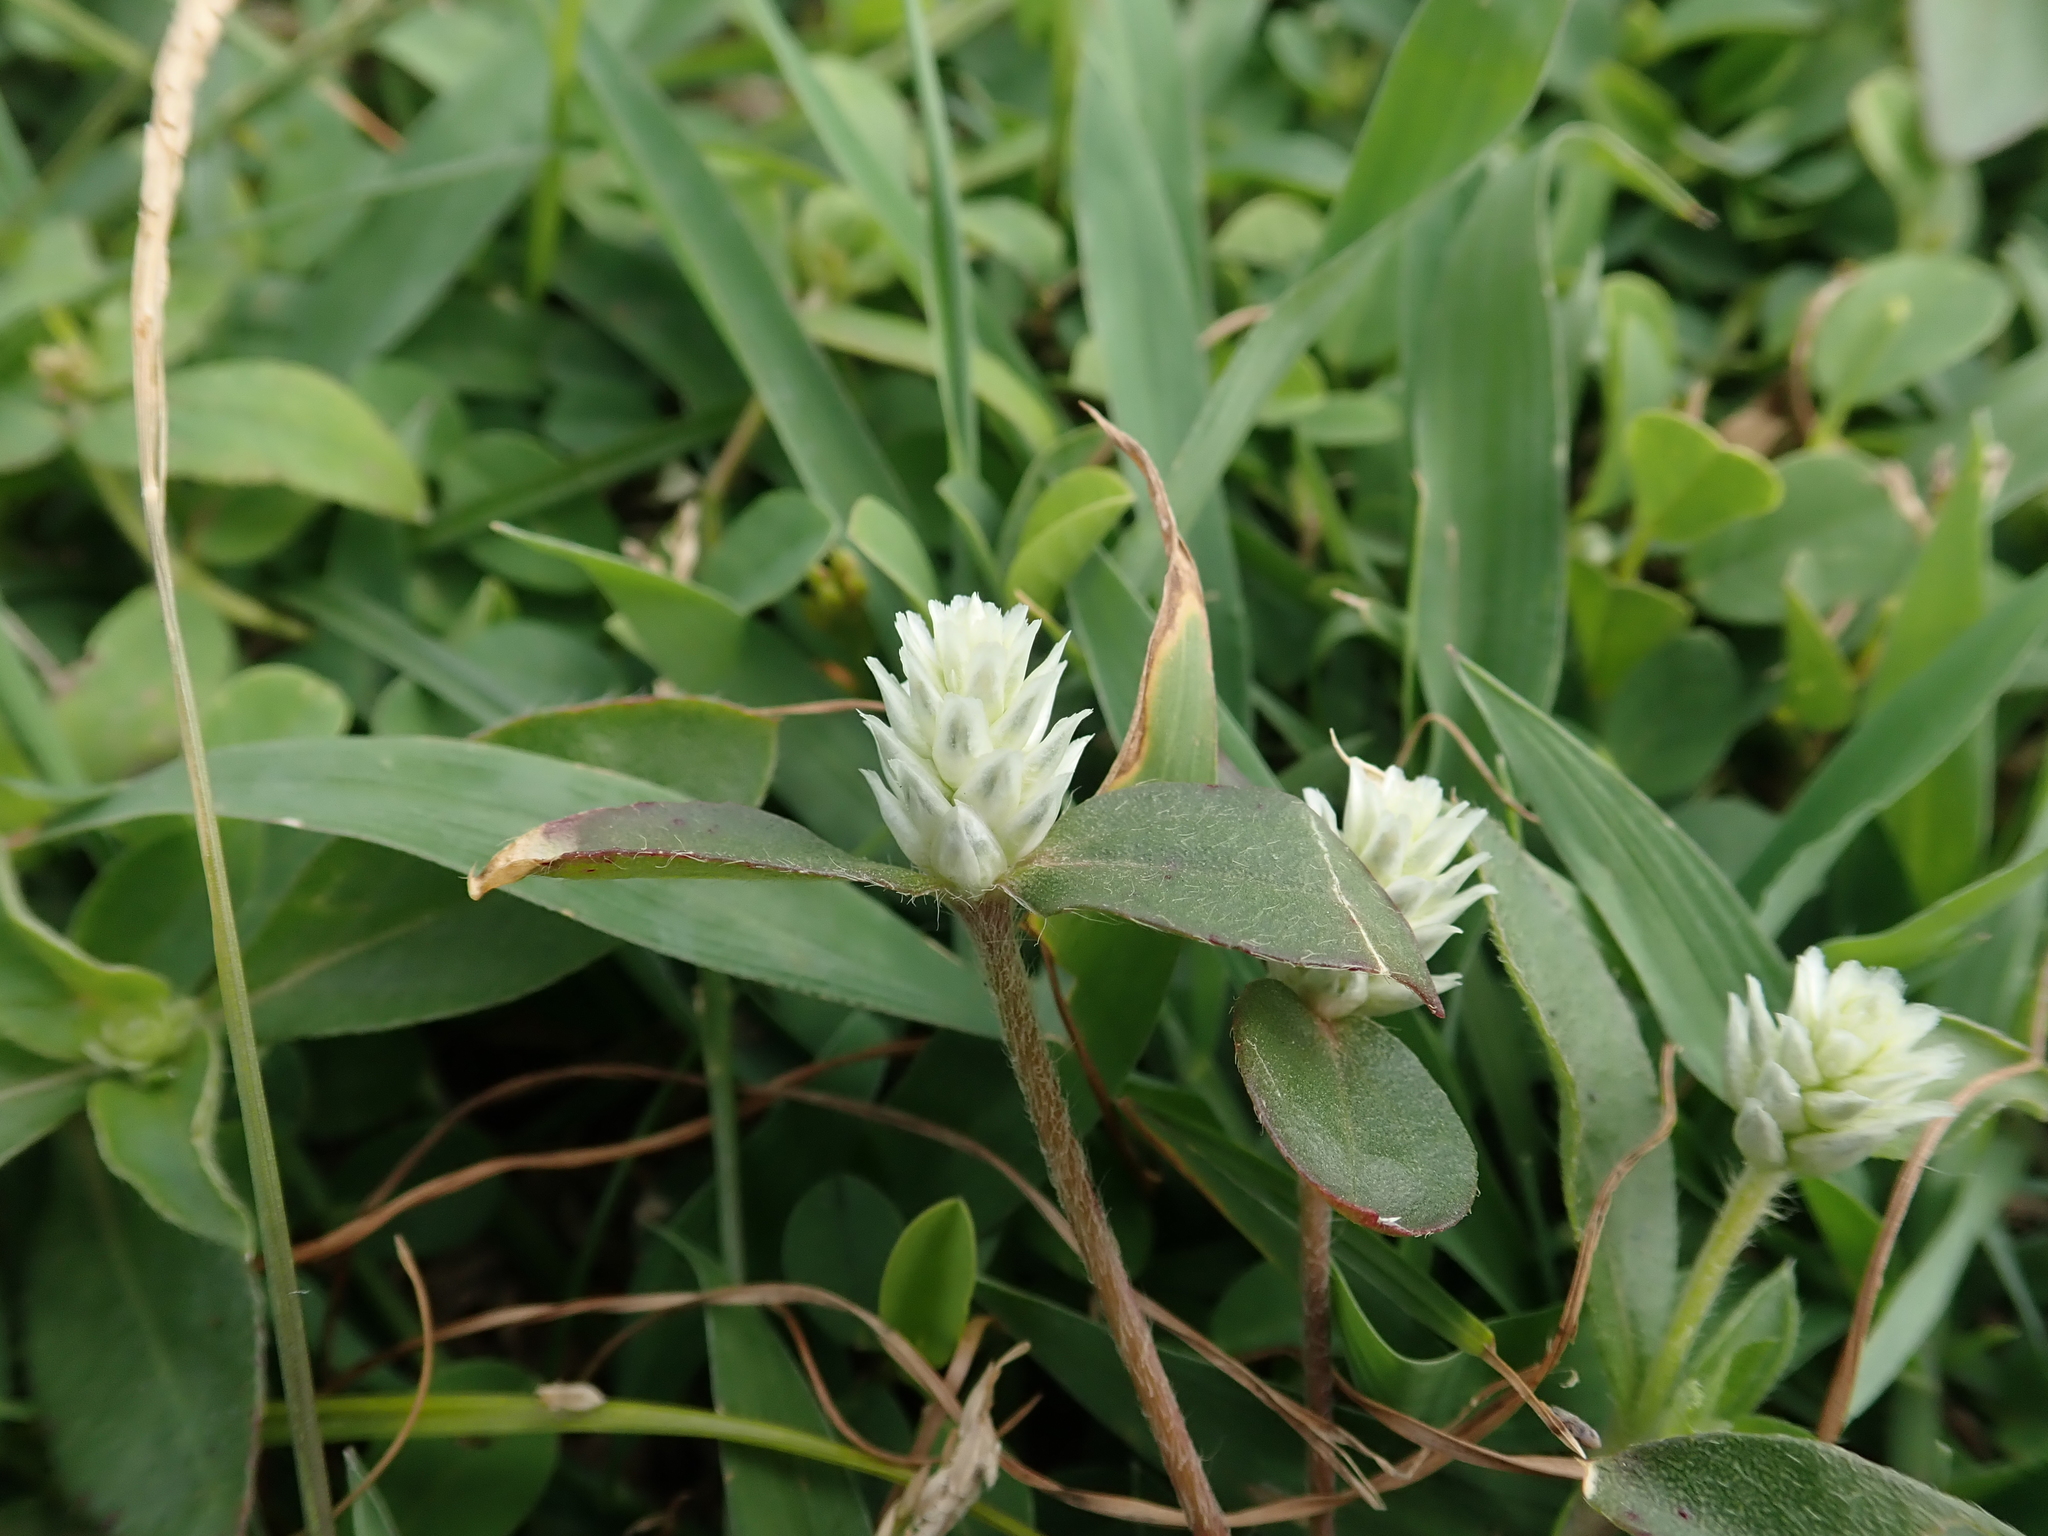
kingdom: Plantae
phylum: Tracheophyta
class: Magnoliopsida
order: Caryophyllales
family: Amaranthaceae
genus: Gomphrena
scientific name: Gomphrena serrata
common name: Arrasa con todo
